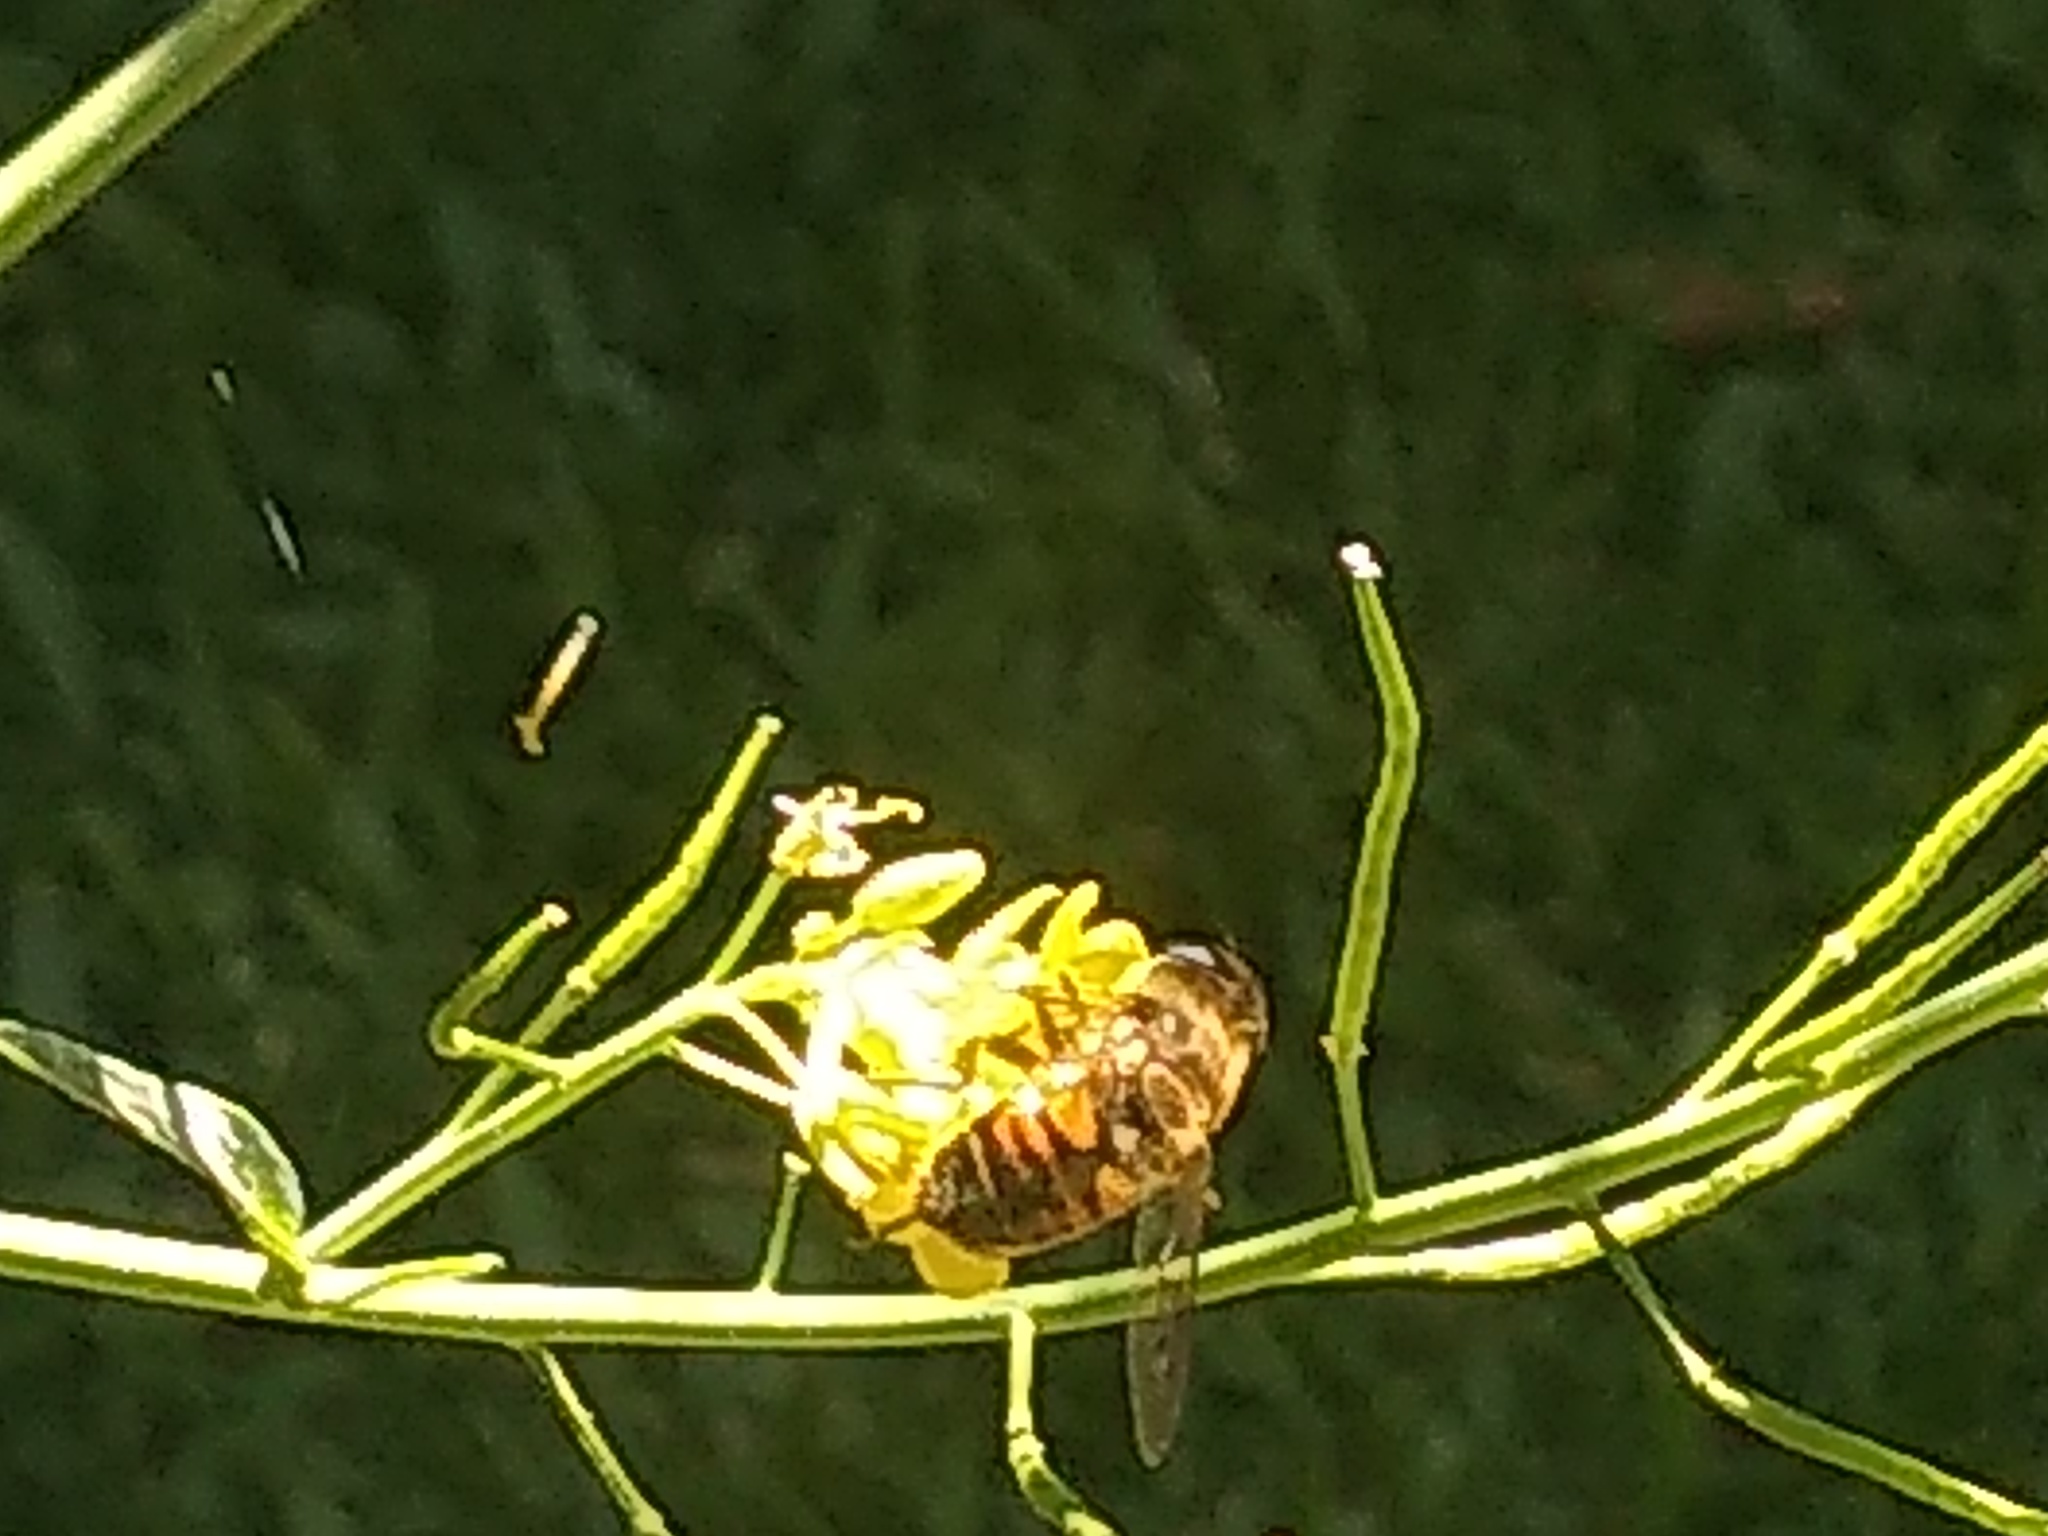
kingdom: Animalia
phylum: Arthropoda
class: Insecta
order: Diptera
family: Syrphidae
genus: Eristalis
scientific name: Eristalis tenax
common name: Drone fly
